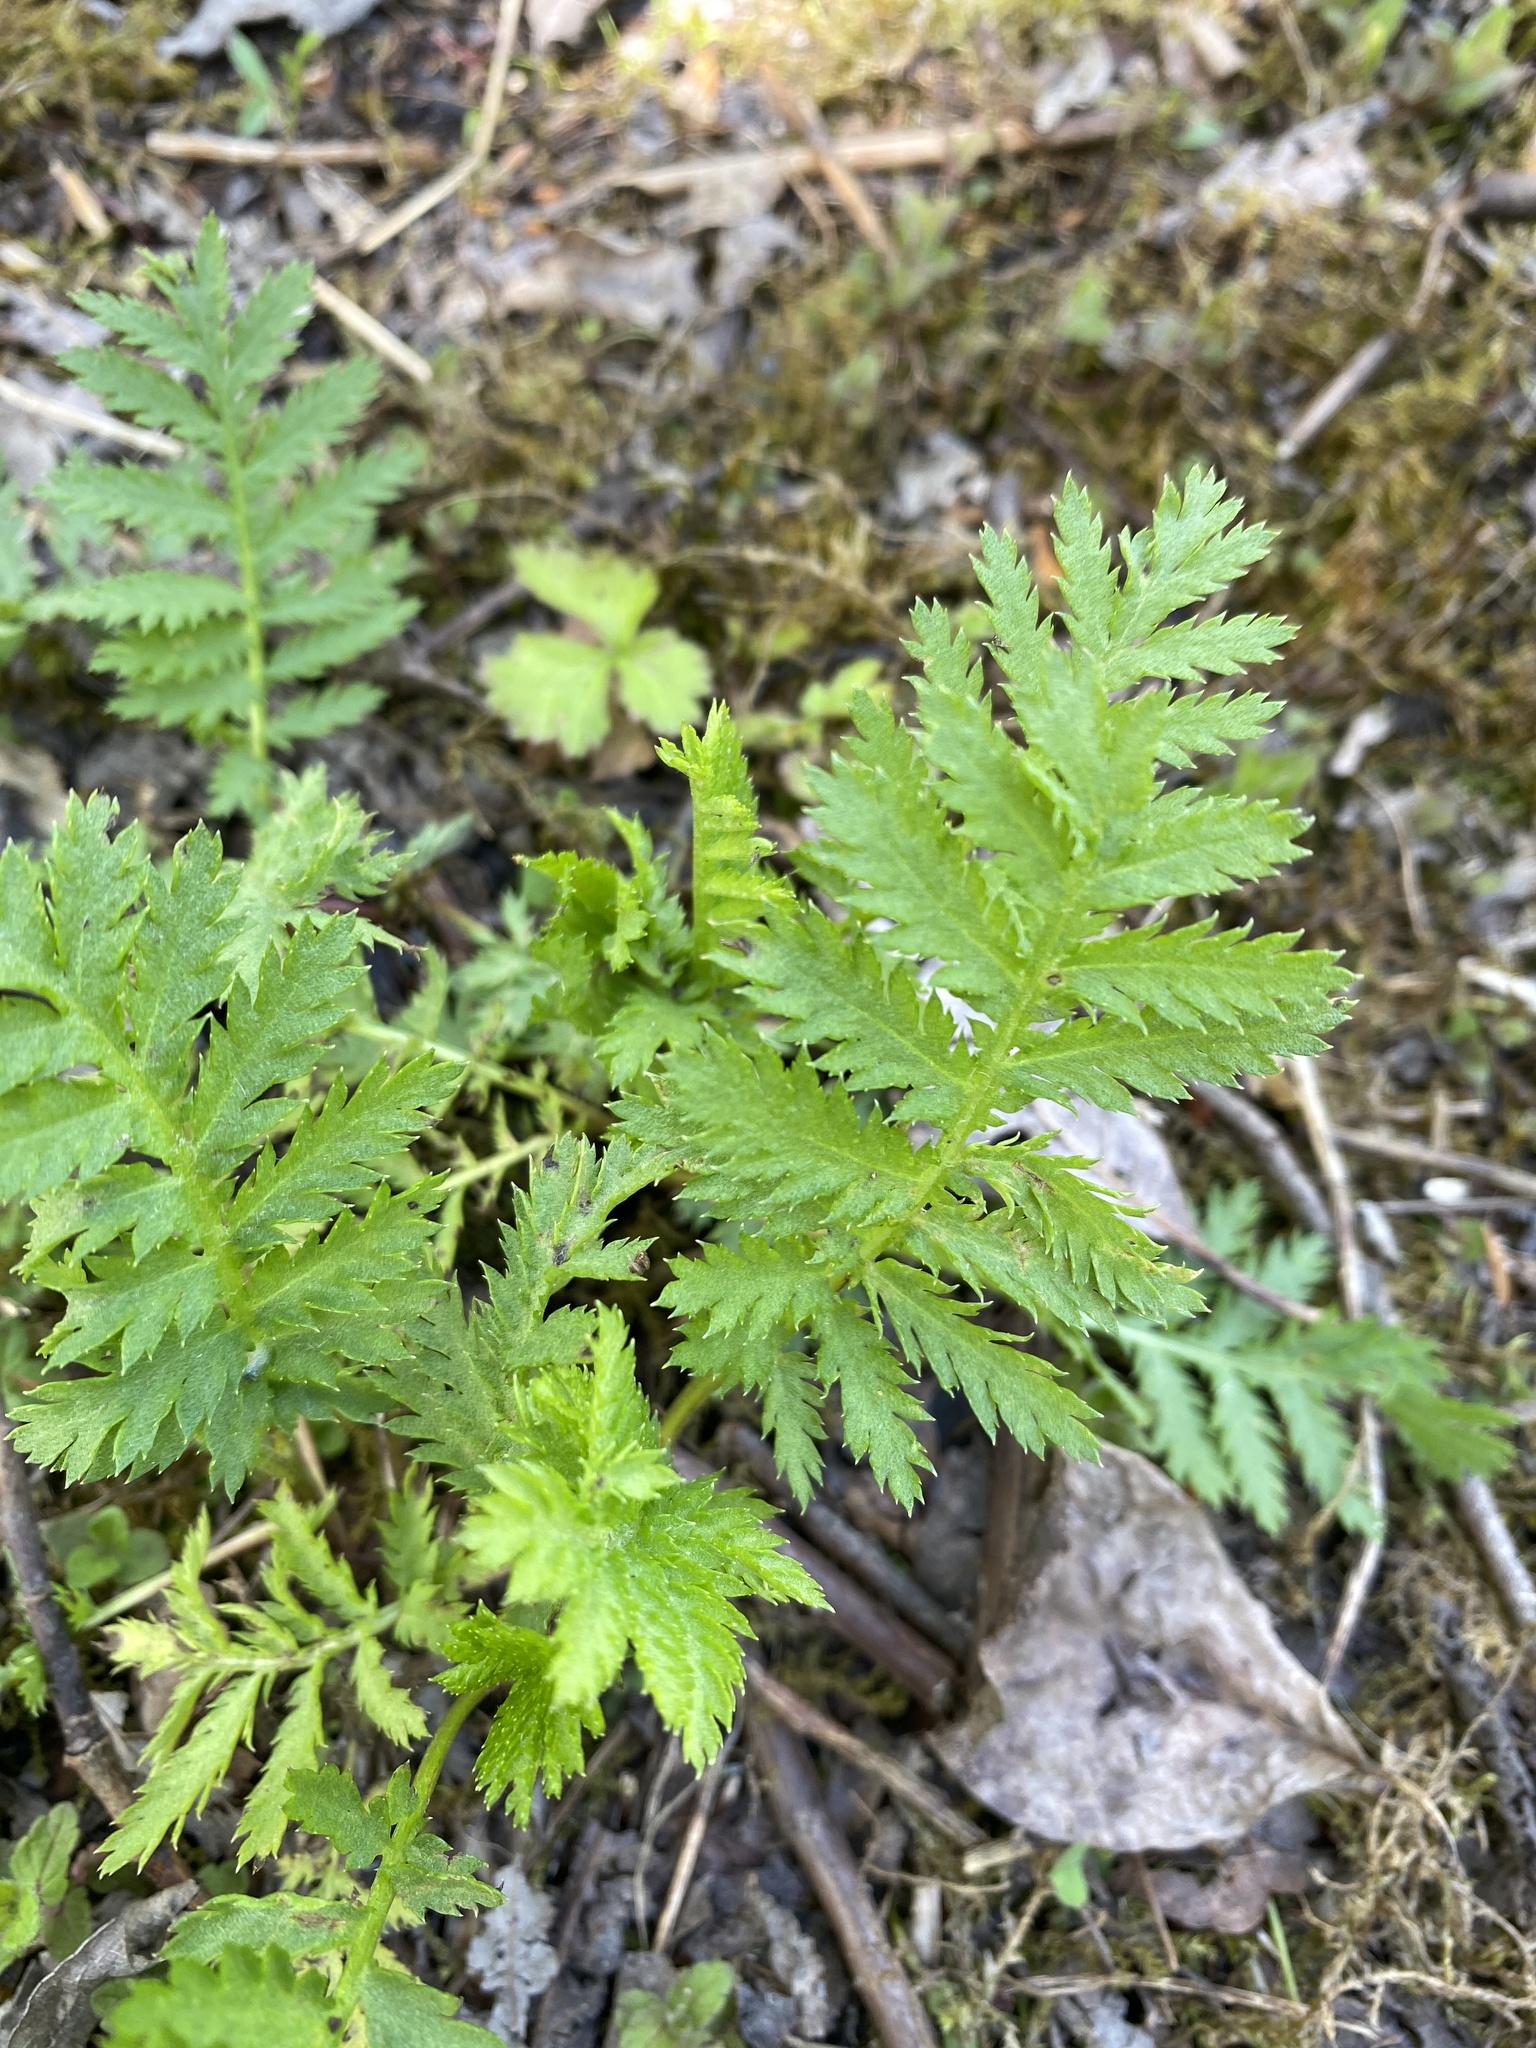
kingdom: Plantae
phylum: Tracheophyta
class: Magnoliopsida
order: Asterales
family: Asteraceae
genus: Tanacetum
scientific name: Tanacetum vulgare
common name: Common tansy
